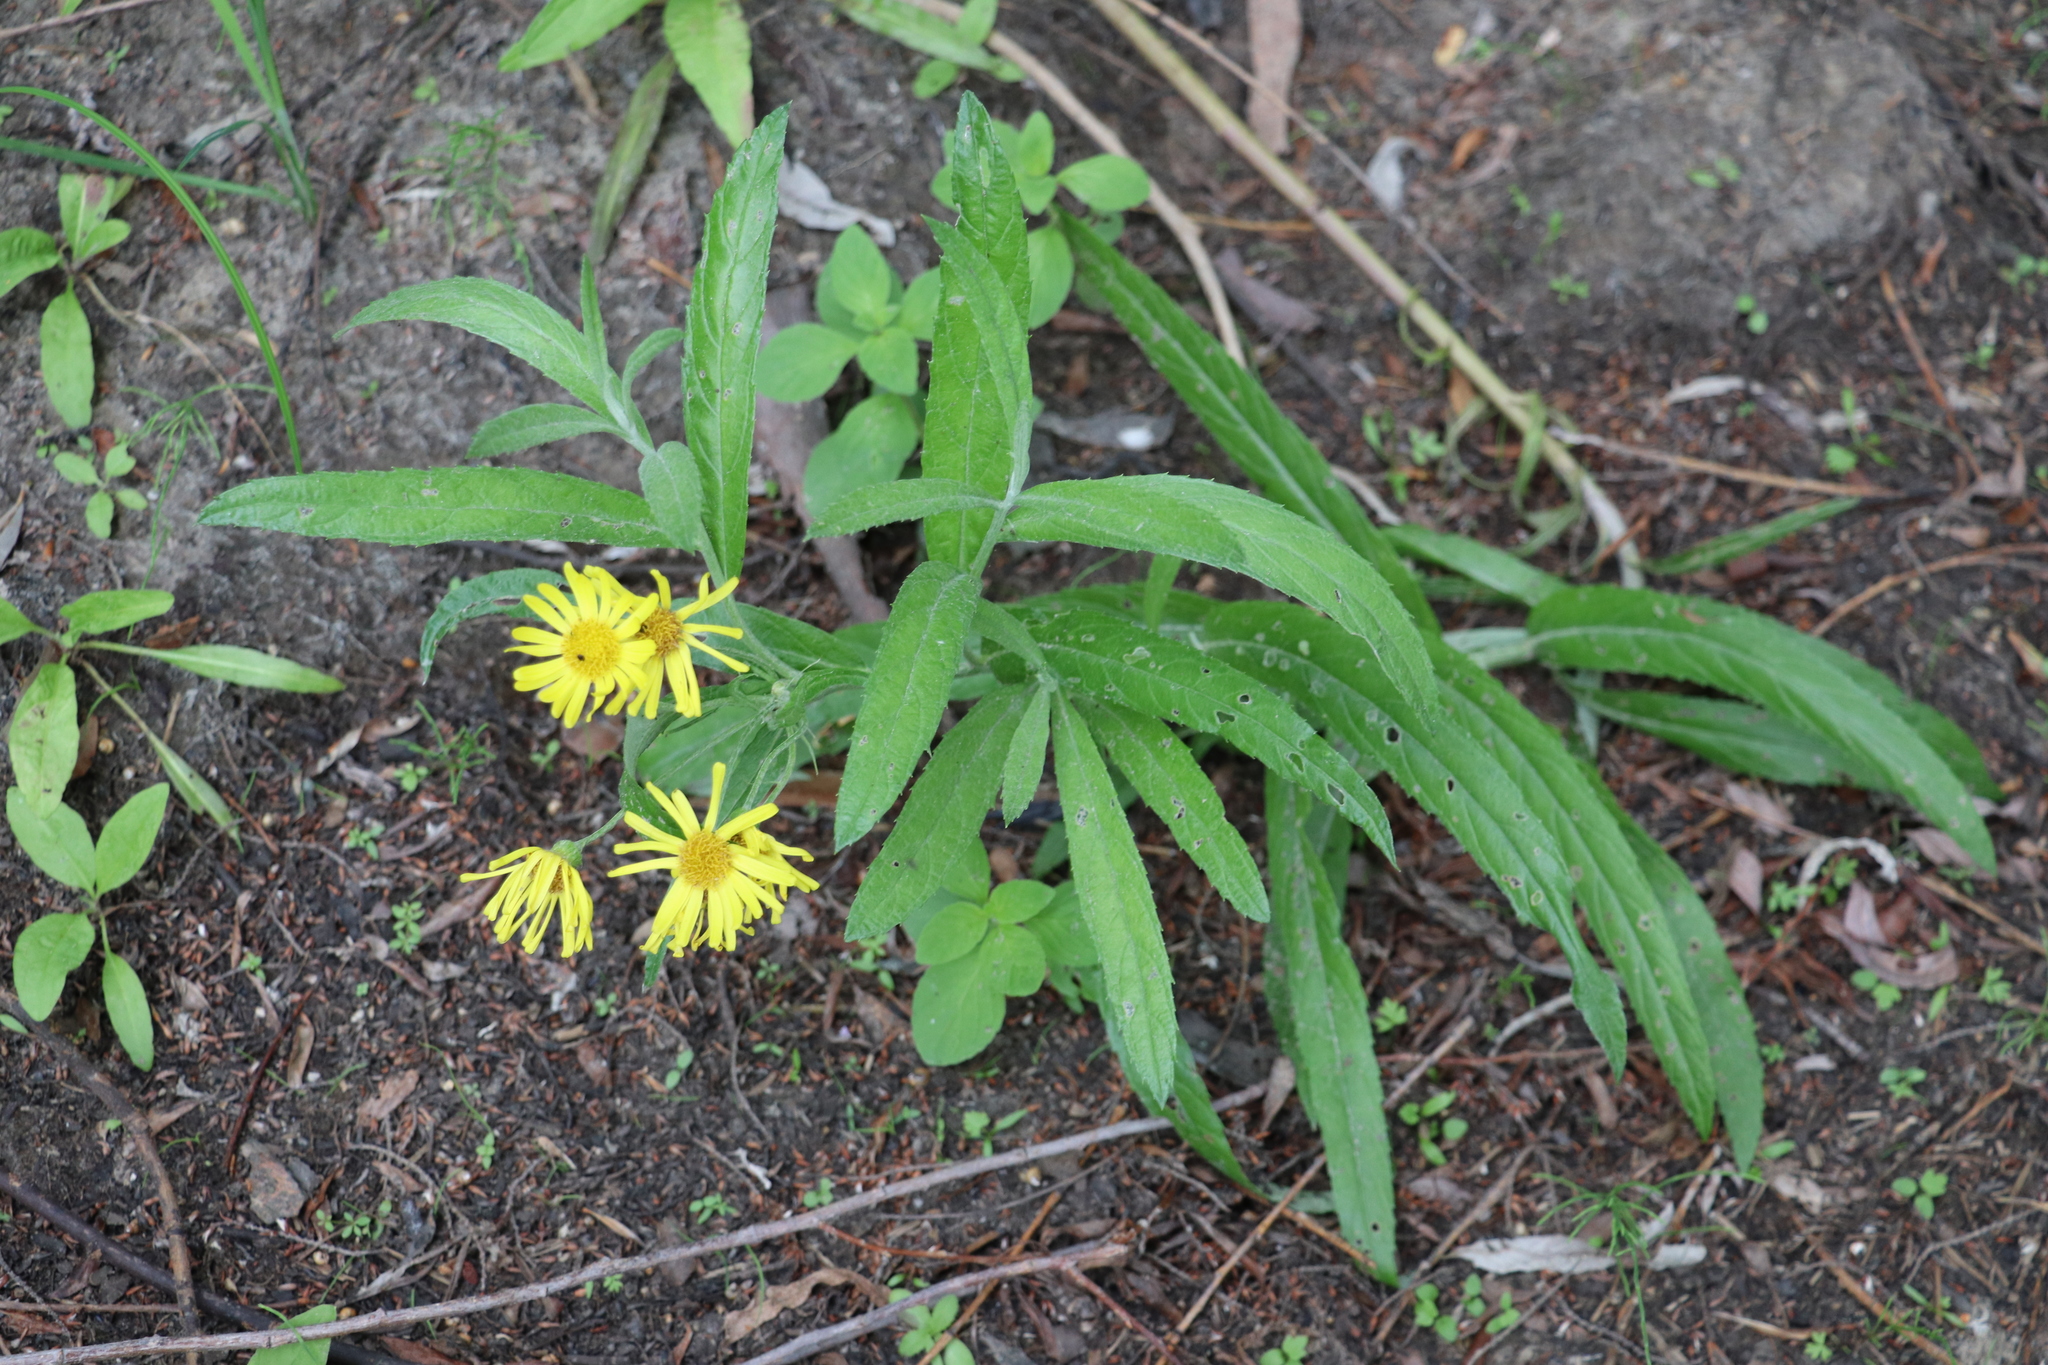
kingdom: Plantae
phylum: Tracheophyta
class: Magnoliopsida
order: Asterales
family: Asteraceae
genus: Jacobaea
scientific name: Jacobaea paludosa
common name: Fen ragwort
